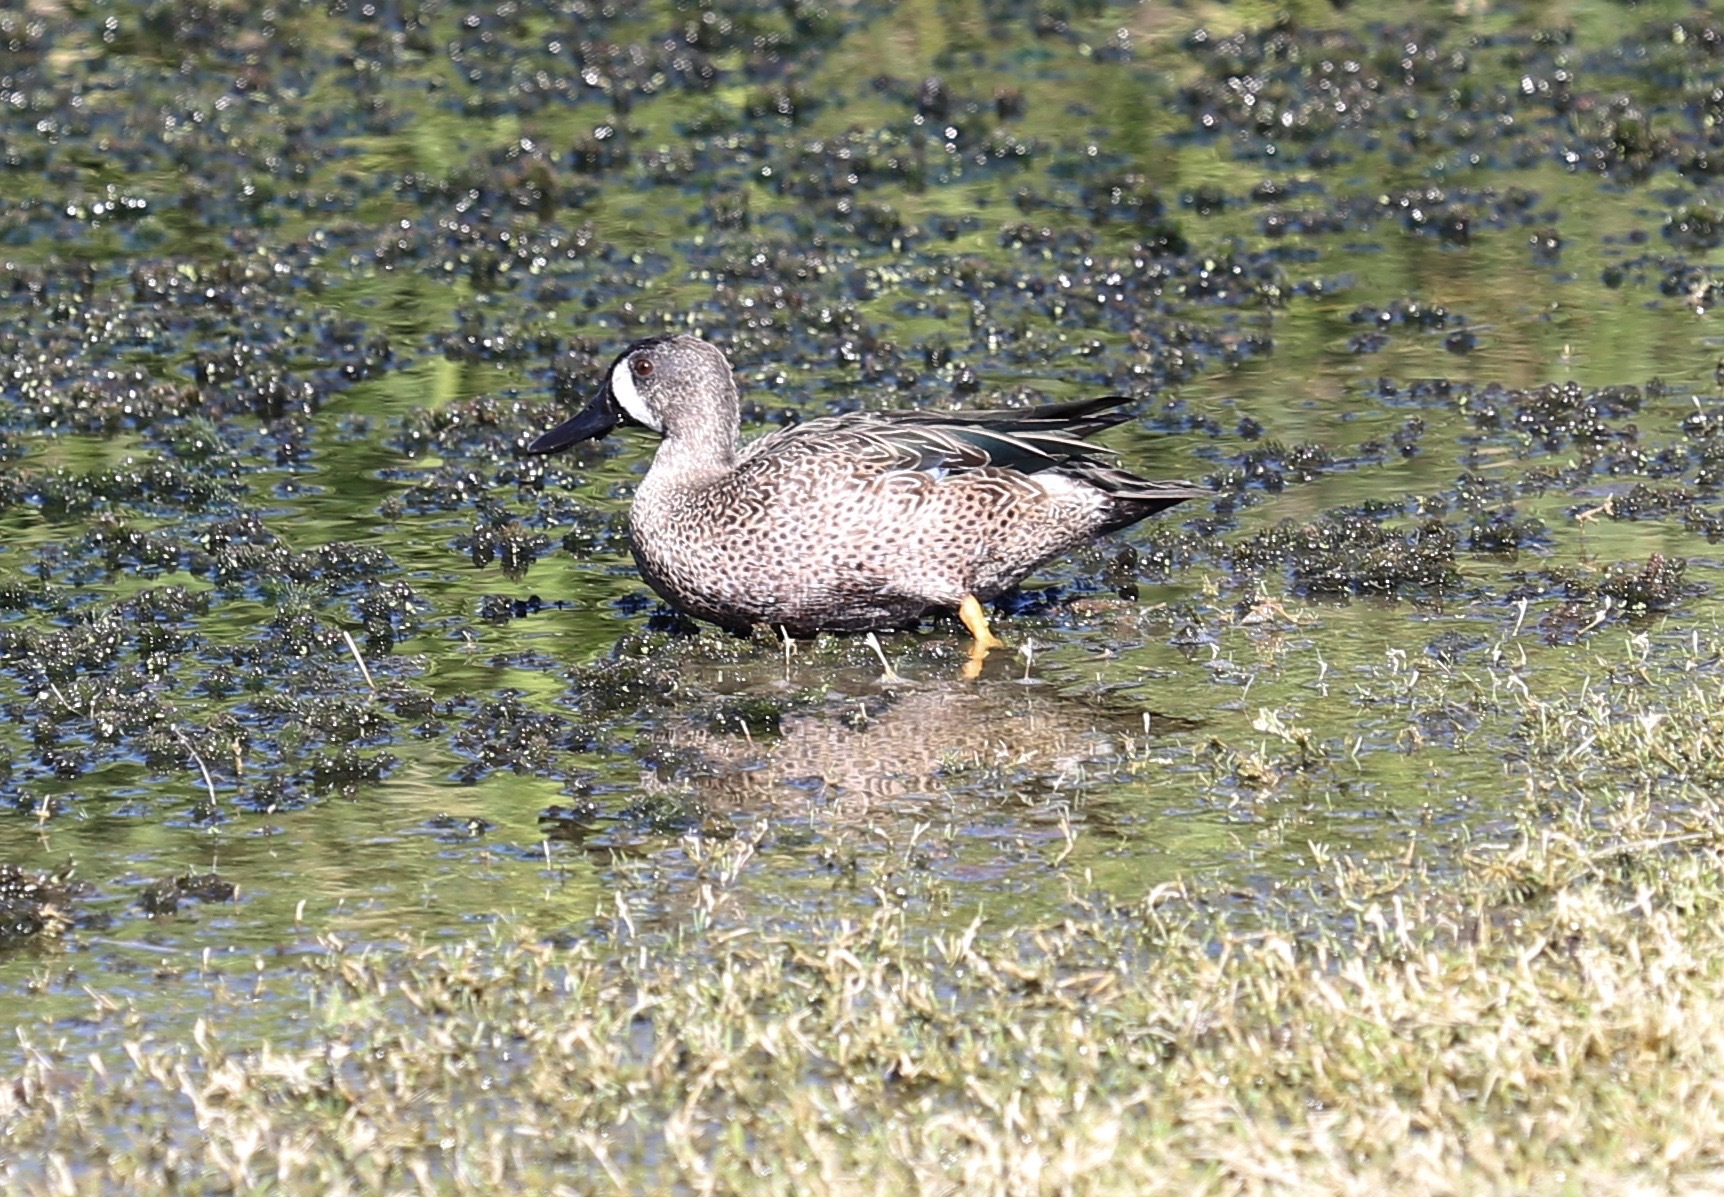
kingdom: Animalia
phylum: Chordata
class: Aves
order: Anseriformes
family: Anatidae
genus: Spatula
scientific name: Spatula discors
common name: Blue-winged teal
